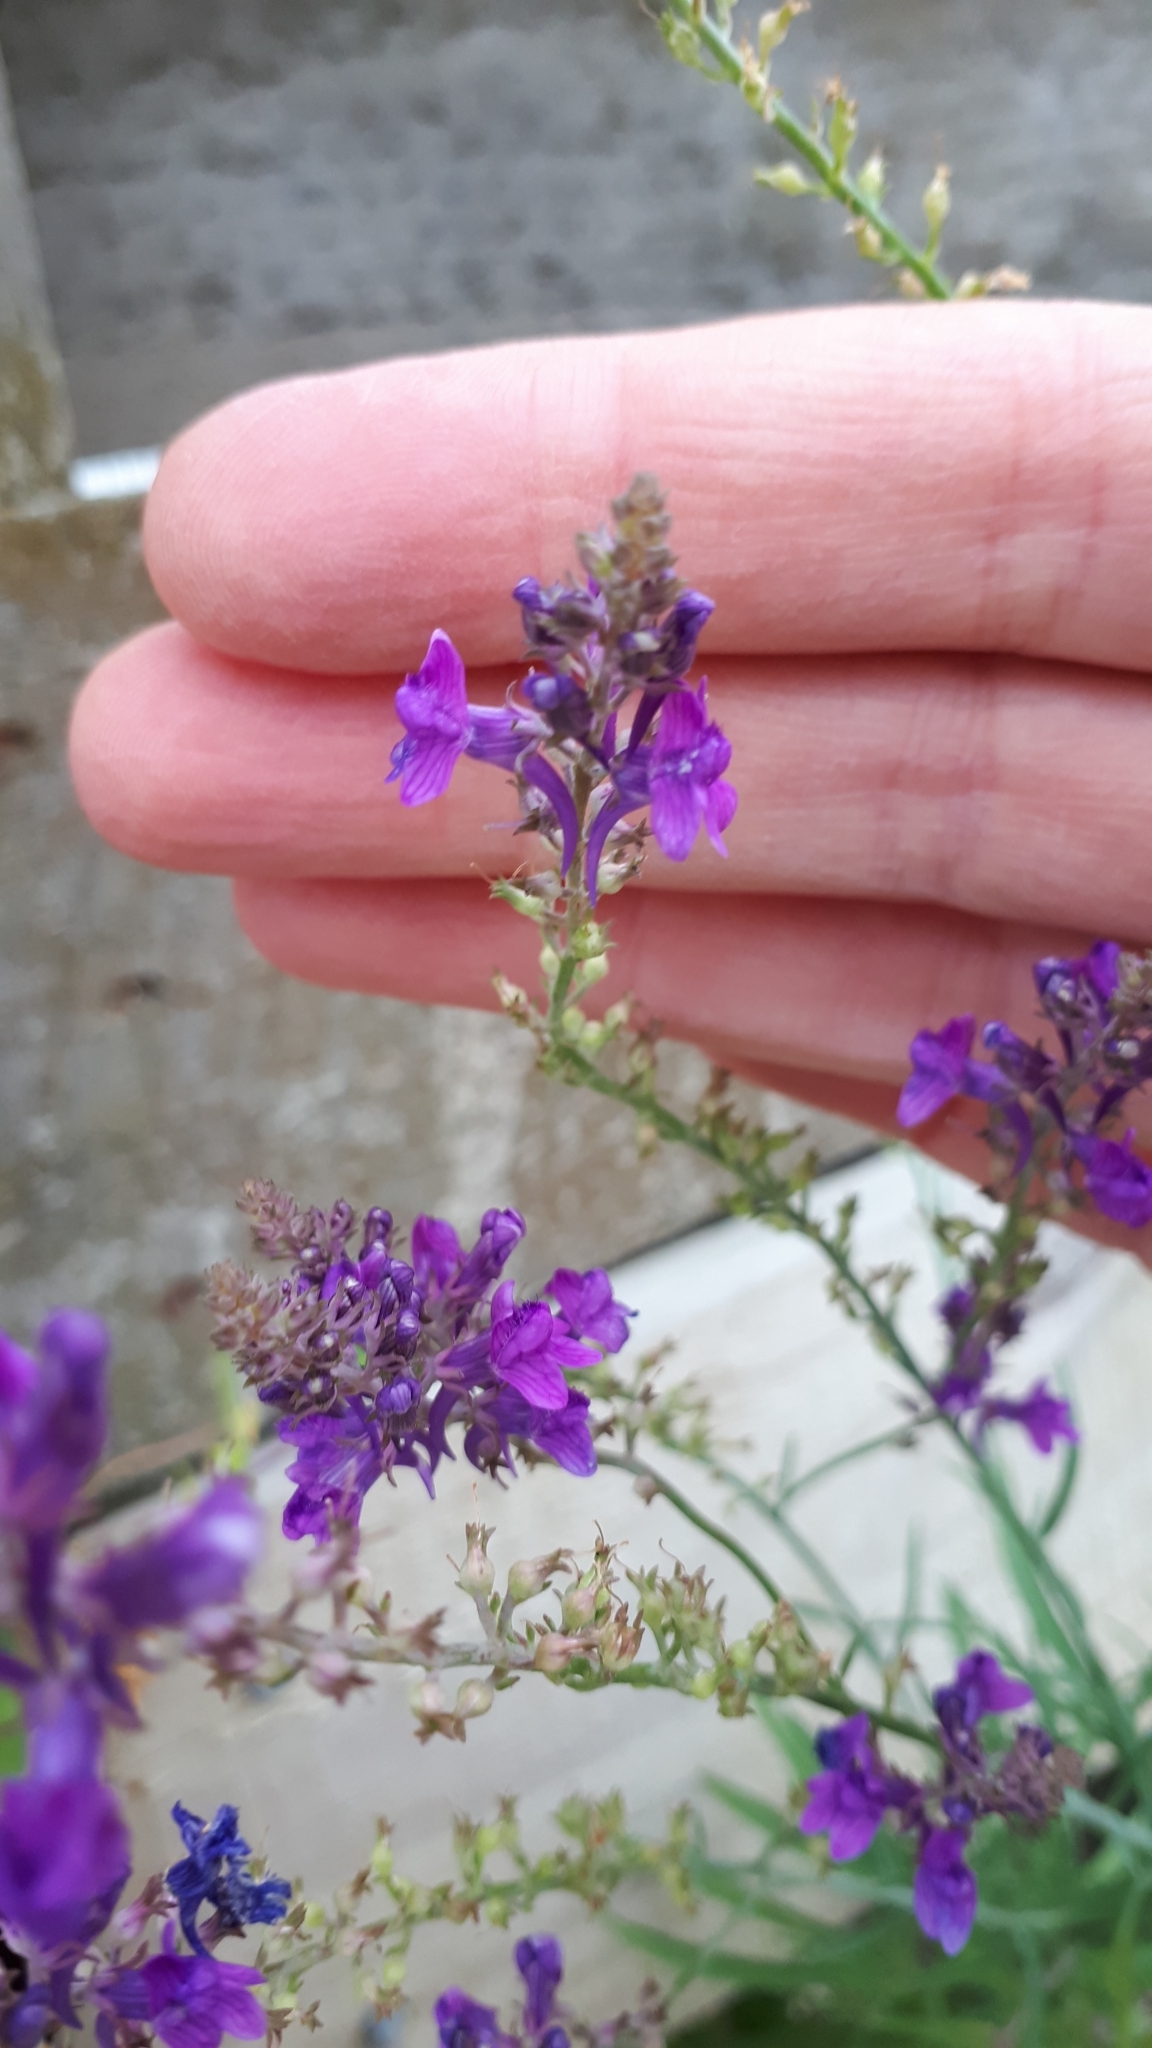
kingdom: Plantae
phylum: Tracheophyta
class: Magnoliopsida
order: Lamiales
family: Plantaginaceae
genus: Linaria
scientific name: Linaria purpurea
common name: Purple toadflax
